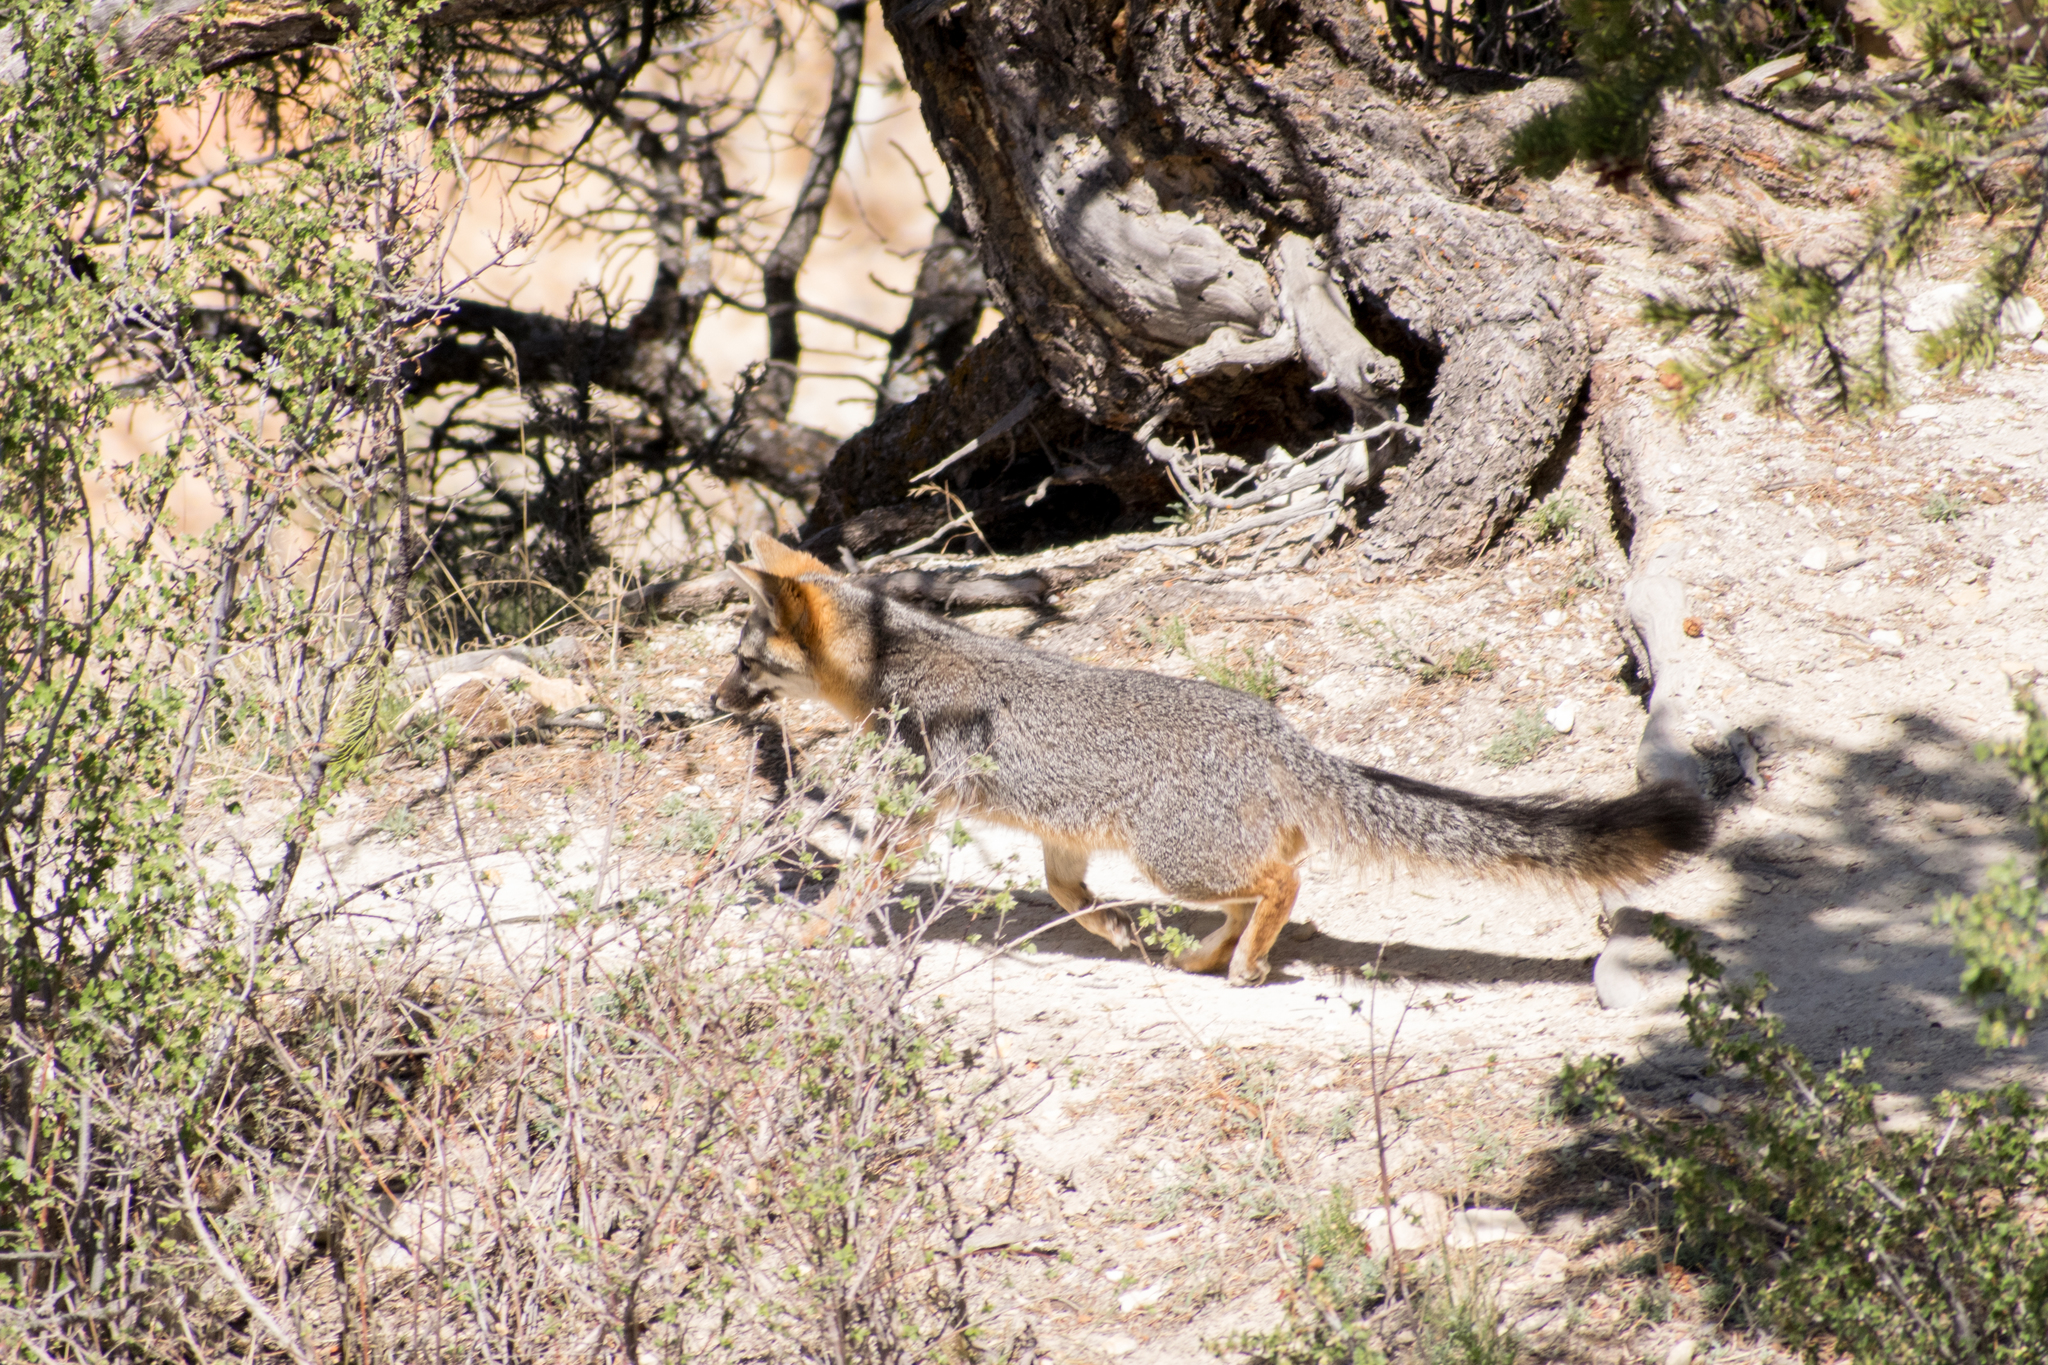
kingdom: Animalia
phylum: Chordata
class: Mammalia
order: Carnivora
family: Canidae
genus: Urocyon
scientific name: Urocyon cinereoargenteus
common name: Gray fox
